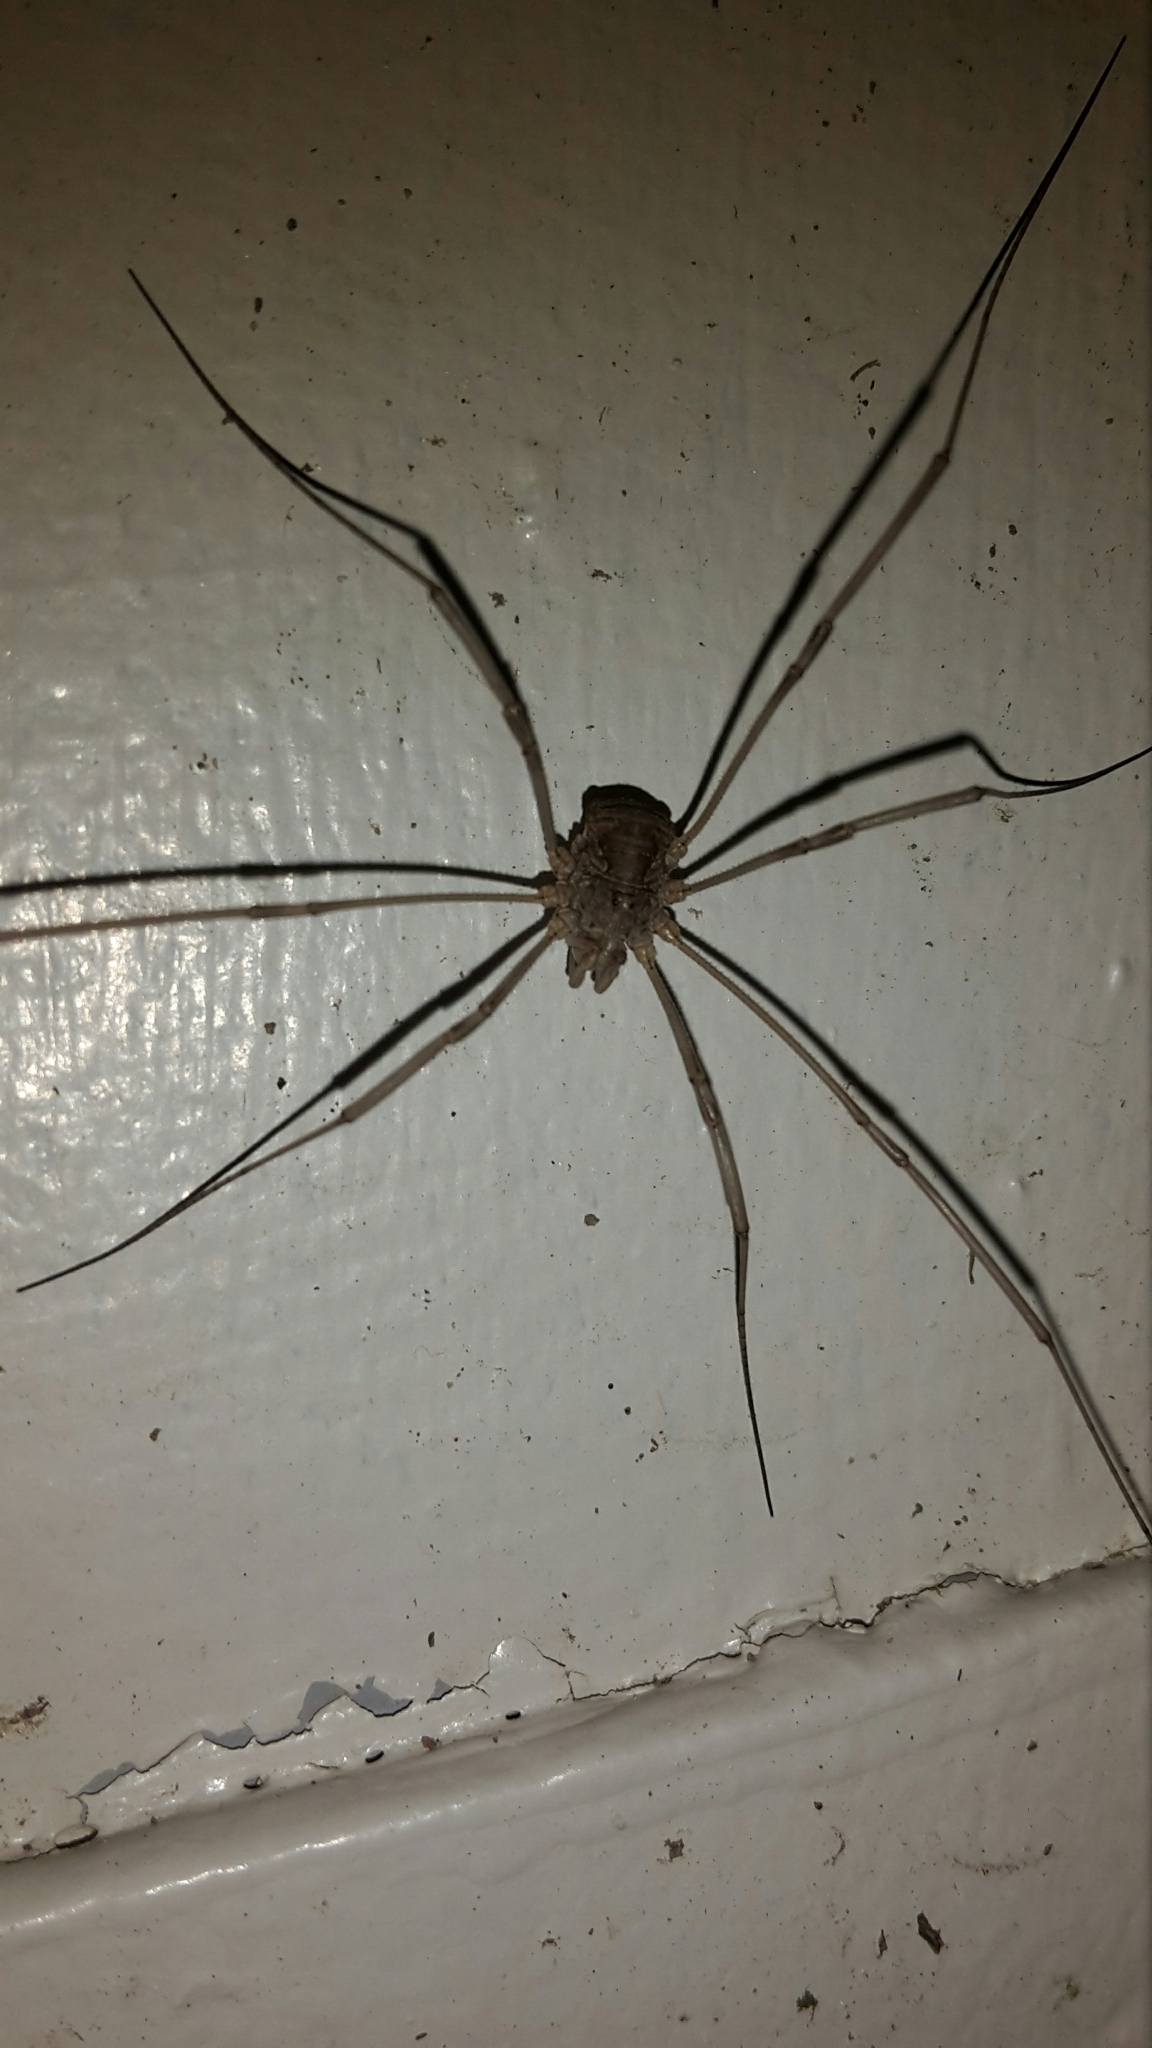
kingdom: Animalia
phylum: Arthropoda
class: Arachnida
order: Opiliones
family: Phalangiidae
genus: Phalangium
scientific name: Phalangium opilio
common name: Daddy longleg
